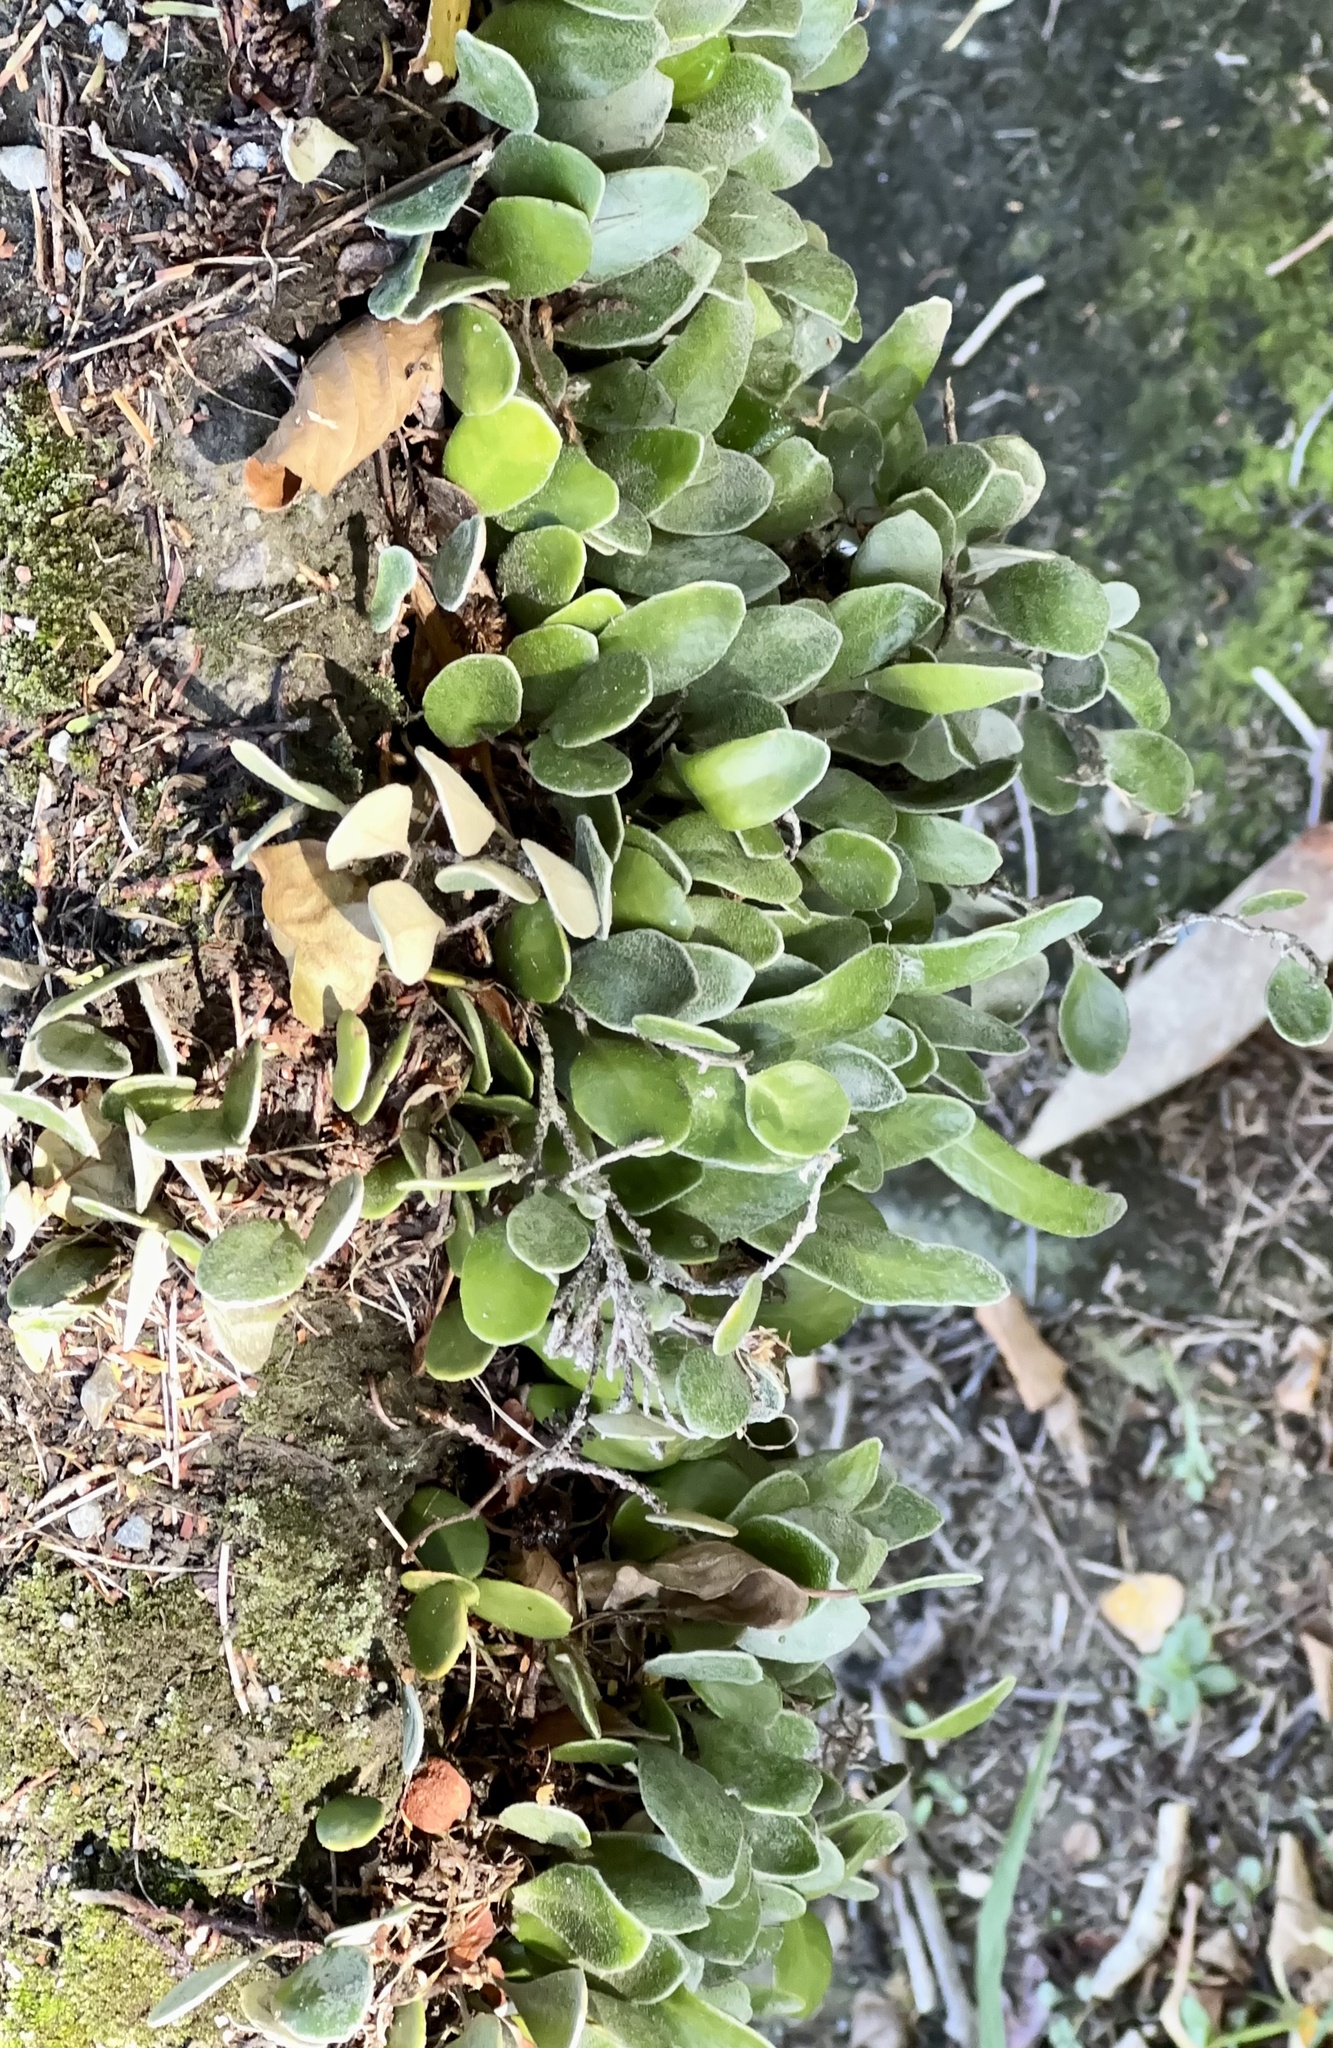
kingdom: Plantae
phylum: Tracheophyta
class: Polypodiopsida
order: Polypodiales
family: Polypodiaceae
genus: Pyrrosia
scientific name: Pyrrosia eleagnifolia
